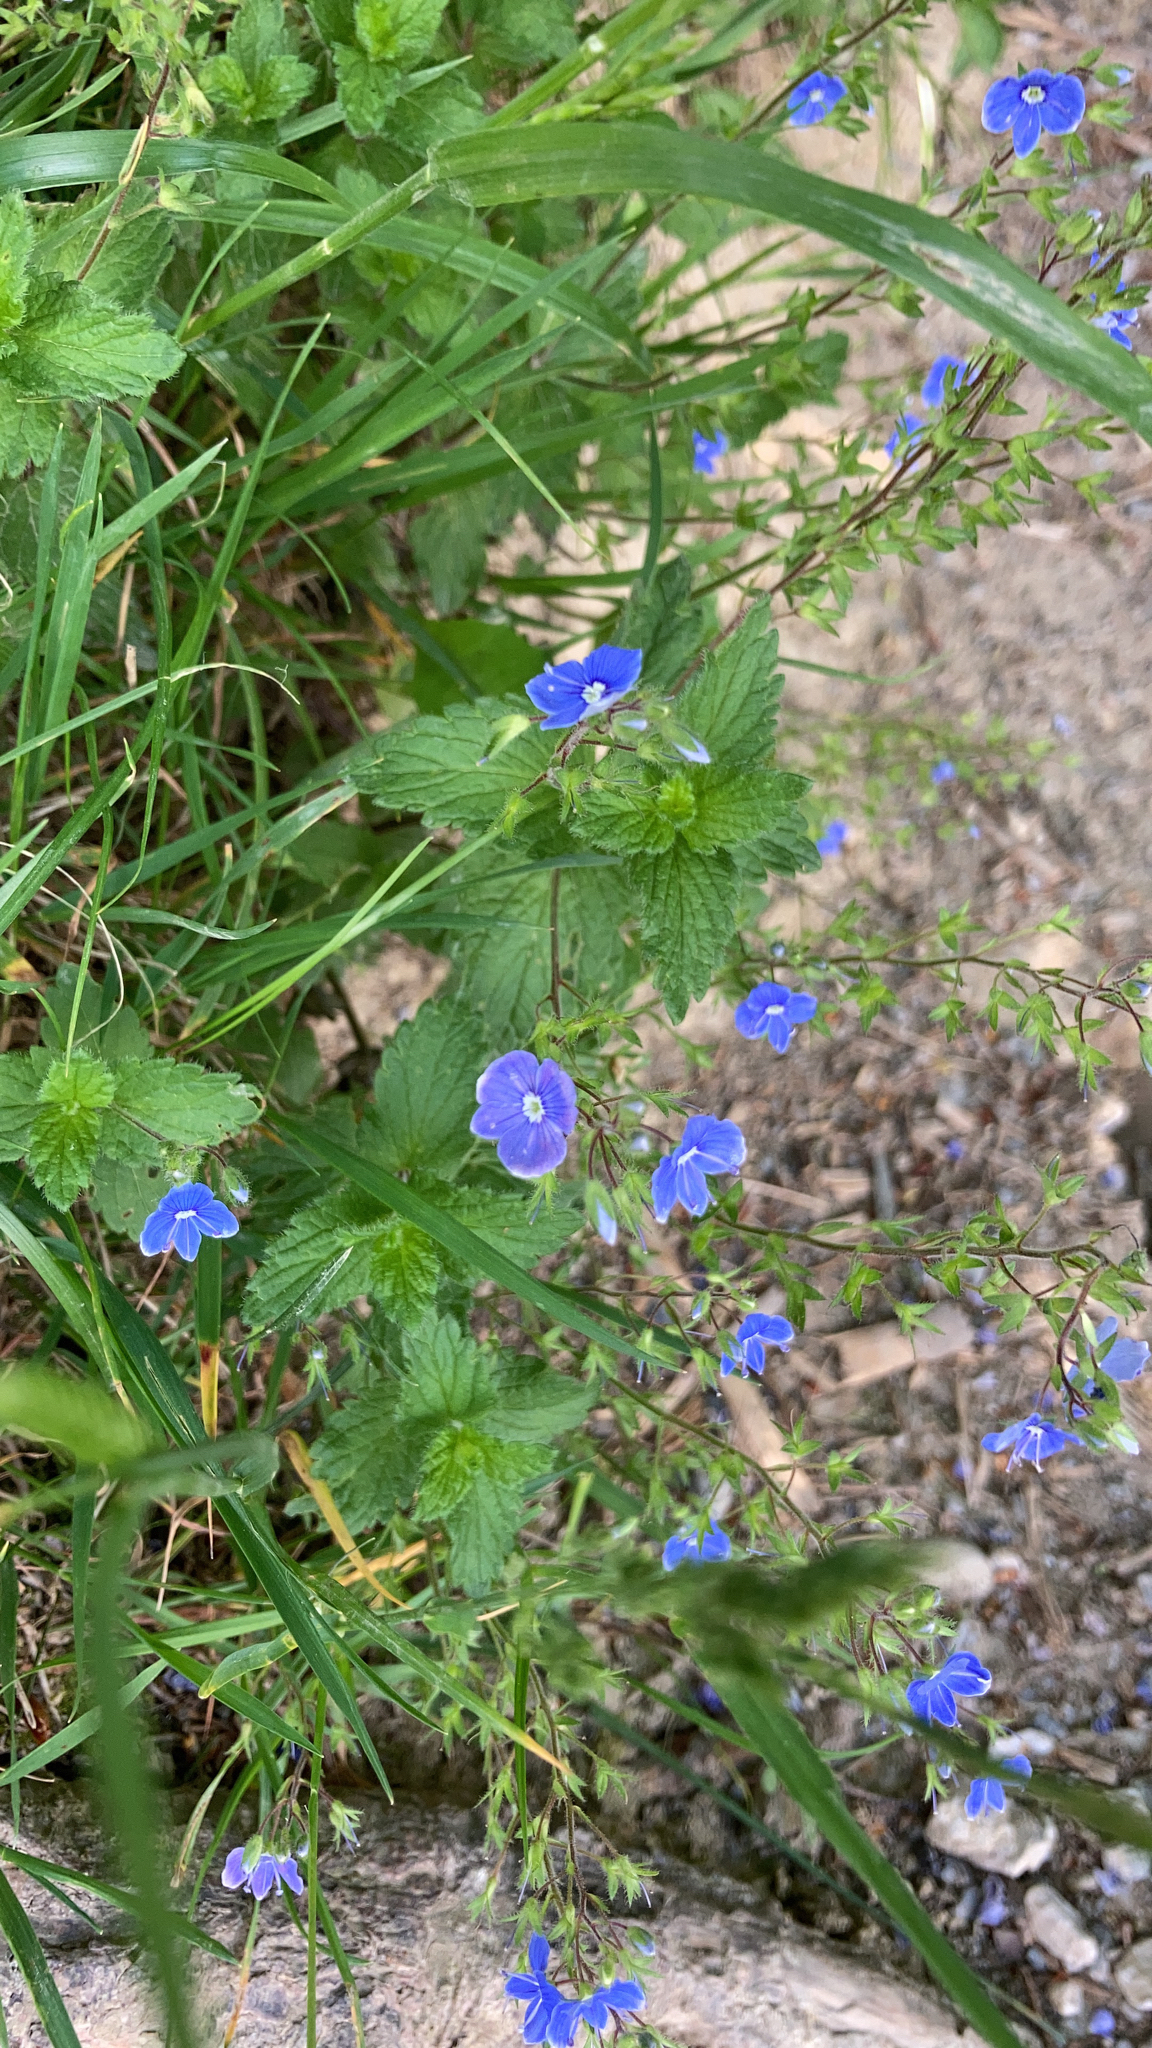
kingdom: Plantae
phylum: Tracheophyta
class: Magnoliopsida
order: Lamiales
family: Plantaginaceae
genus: Veronica
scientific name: Veronica chamaedrys
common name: Germander speedwell
